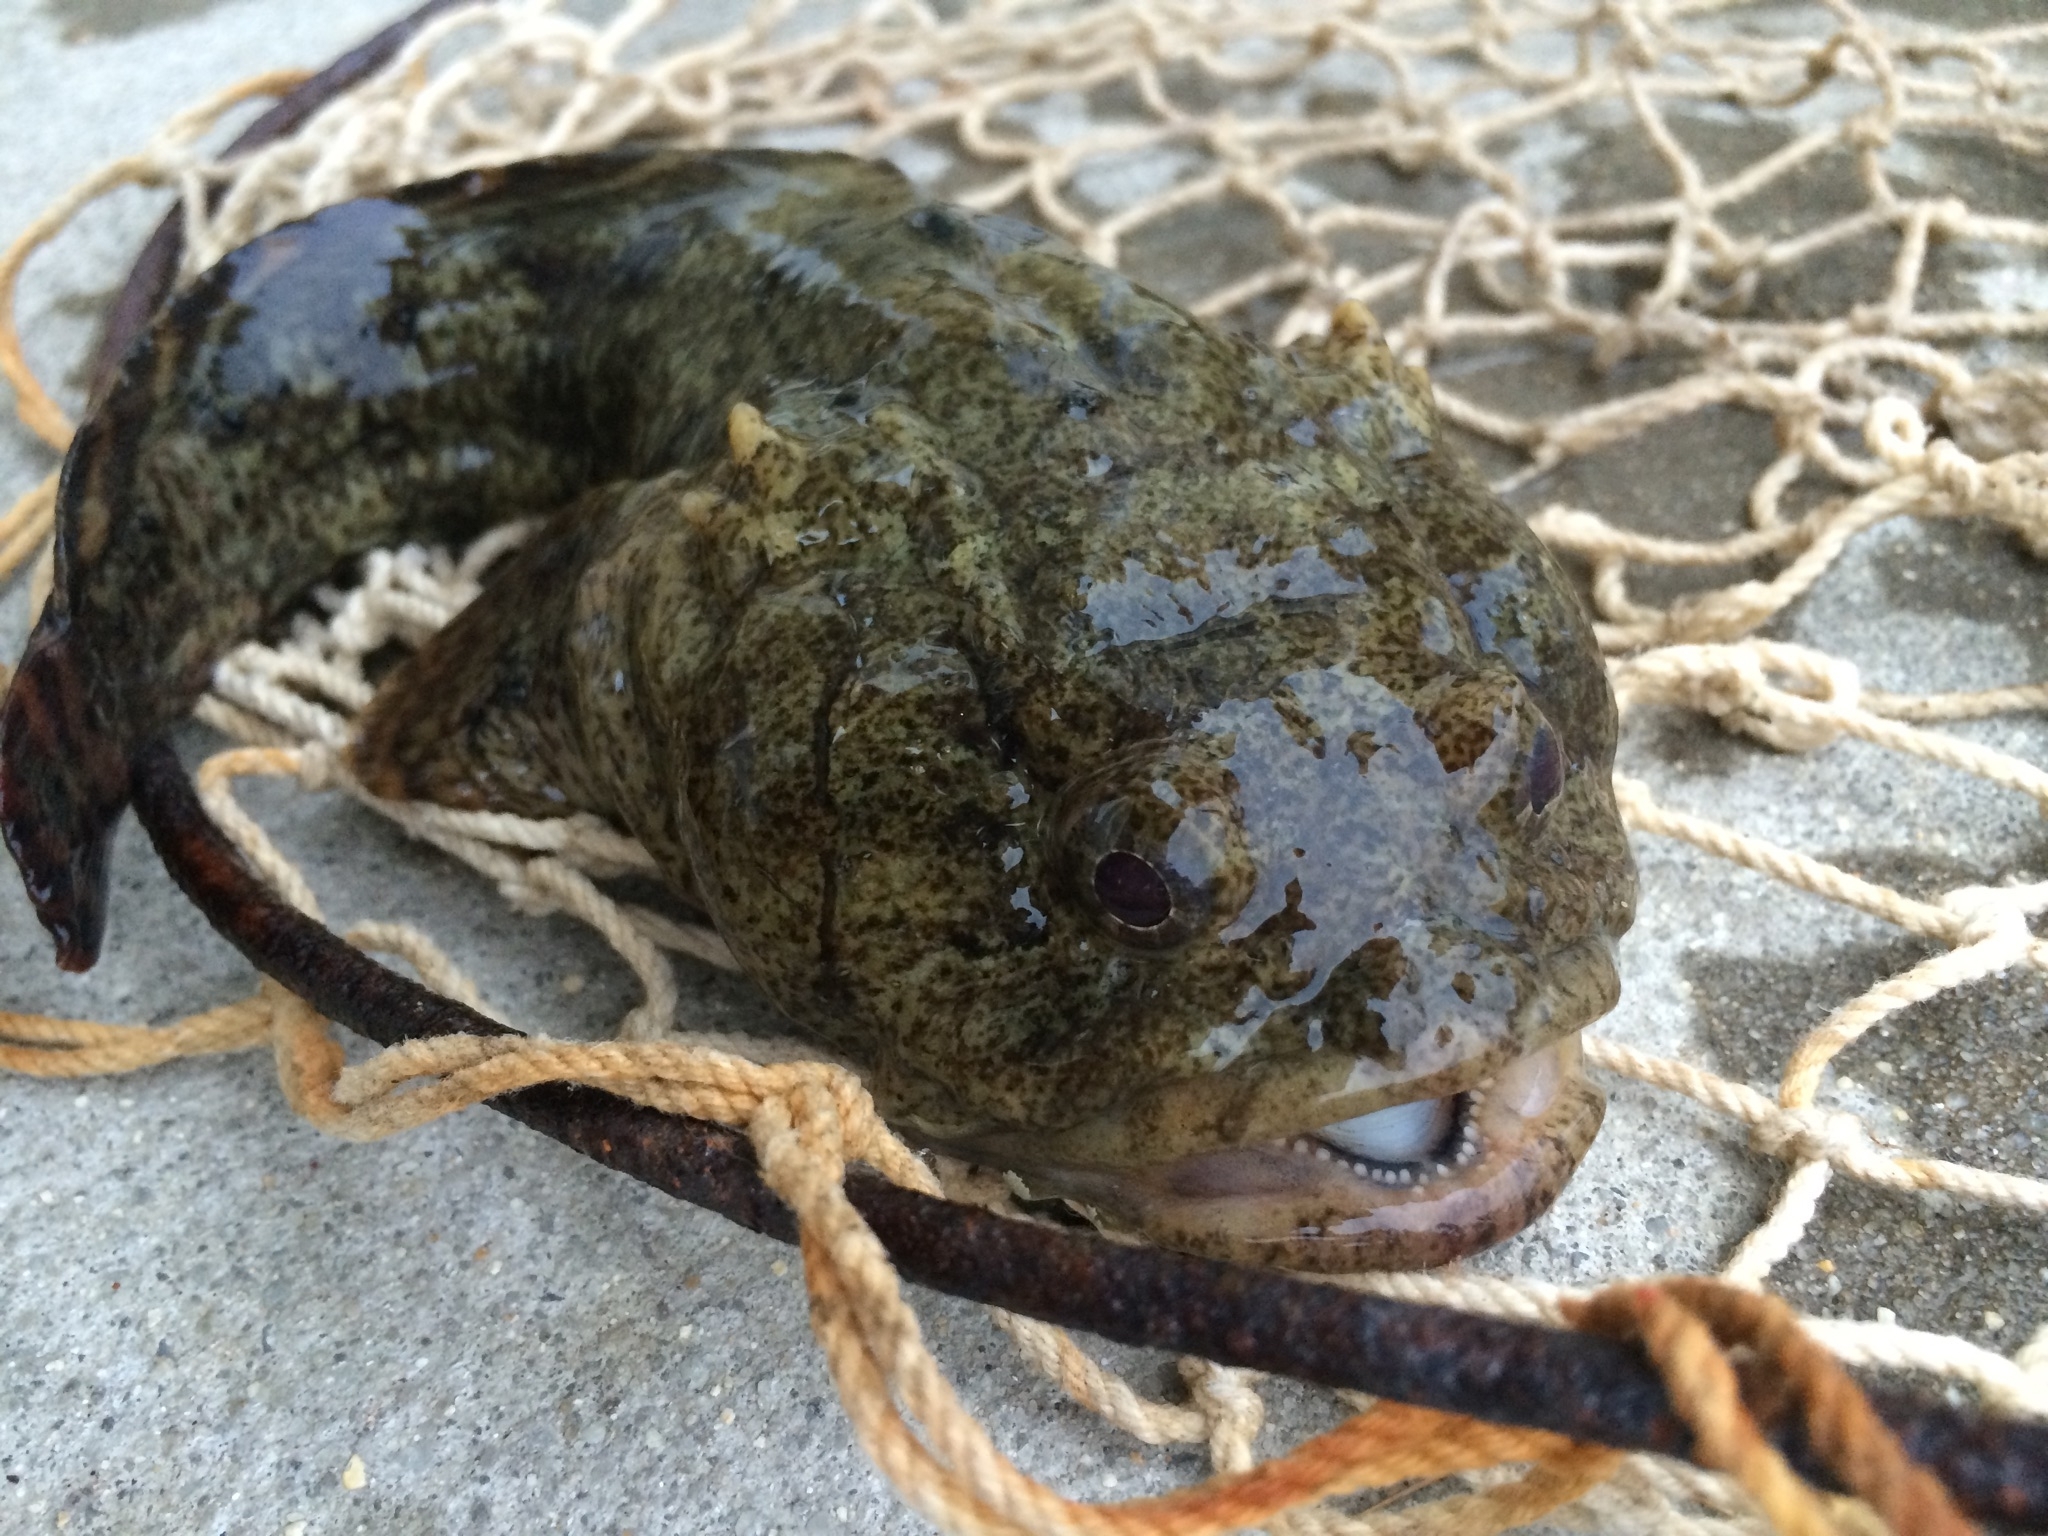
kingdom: Animalia
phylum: Chordata
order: Batrachoidiformes
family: Batrachoididae
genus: Opsanus
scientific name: Opsanus tau
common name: Oyster toadfish
